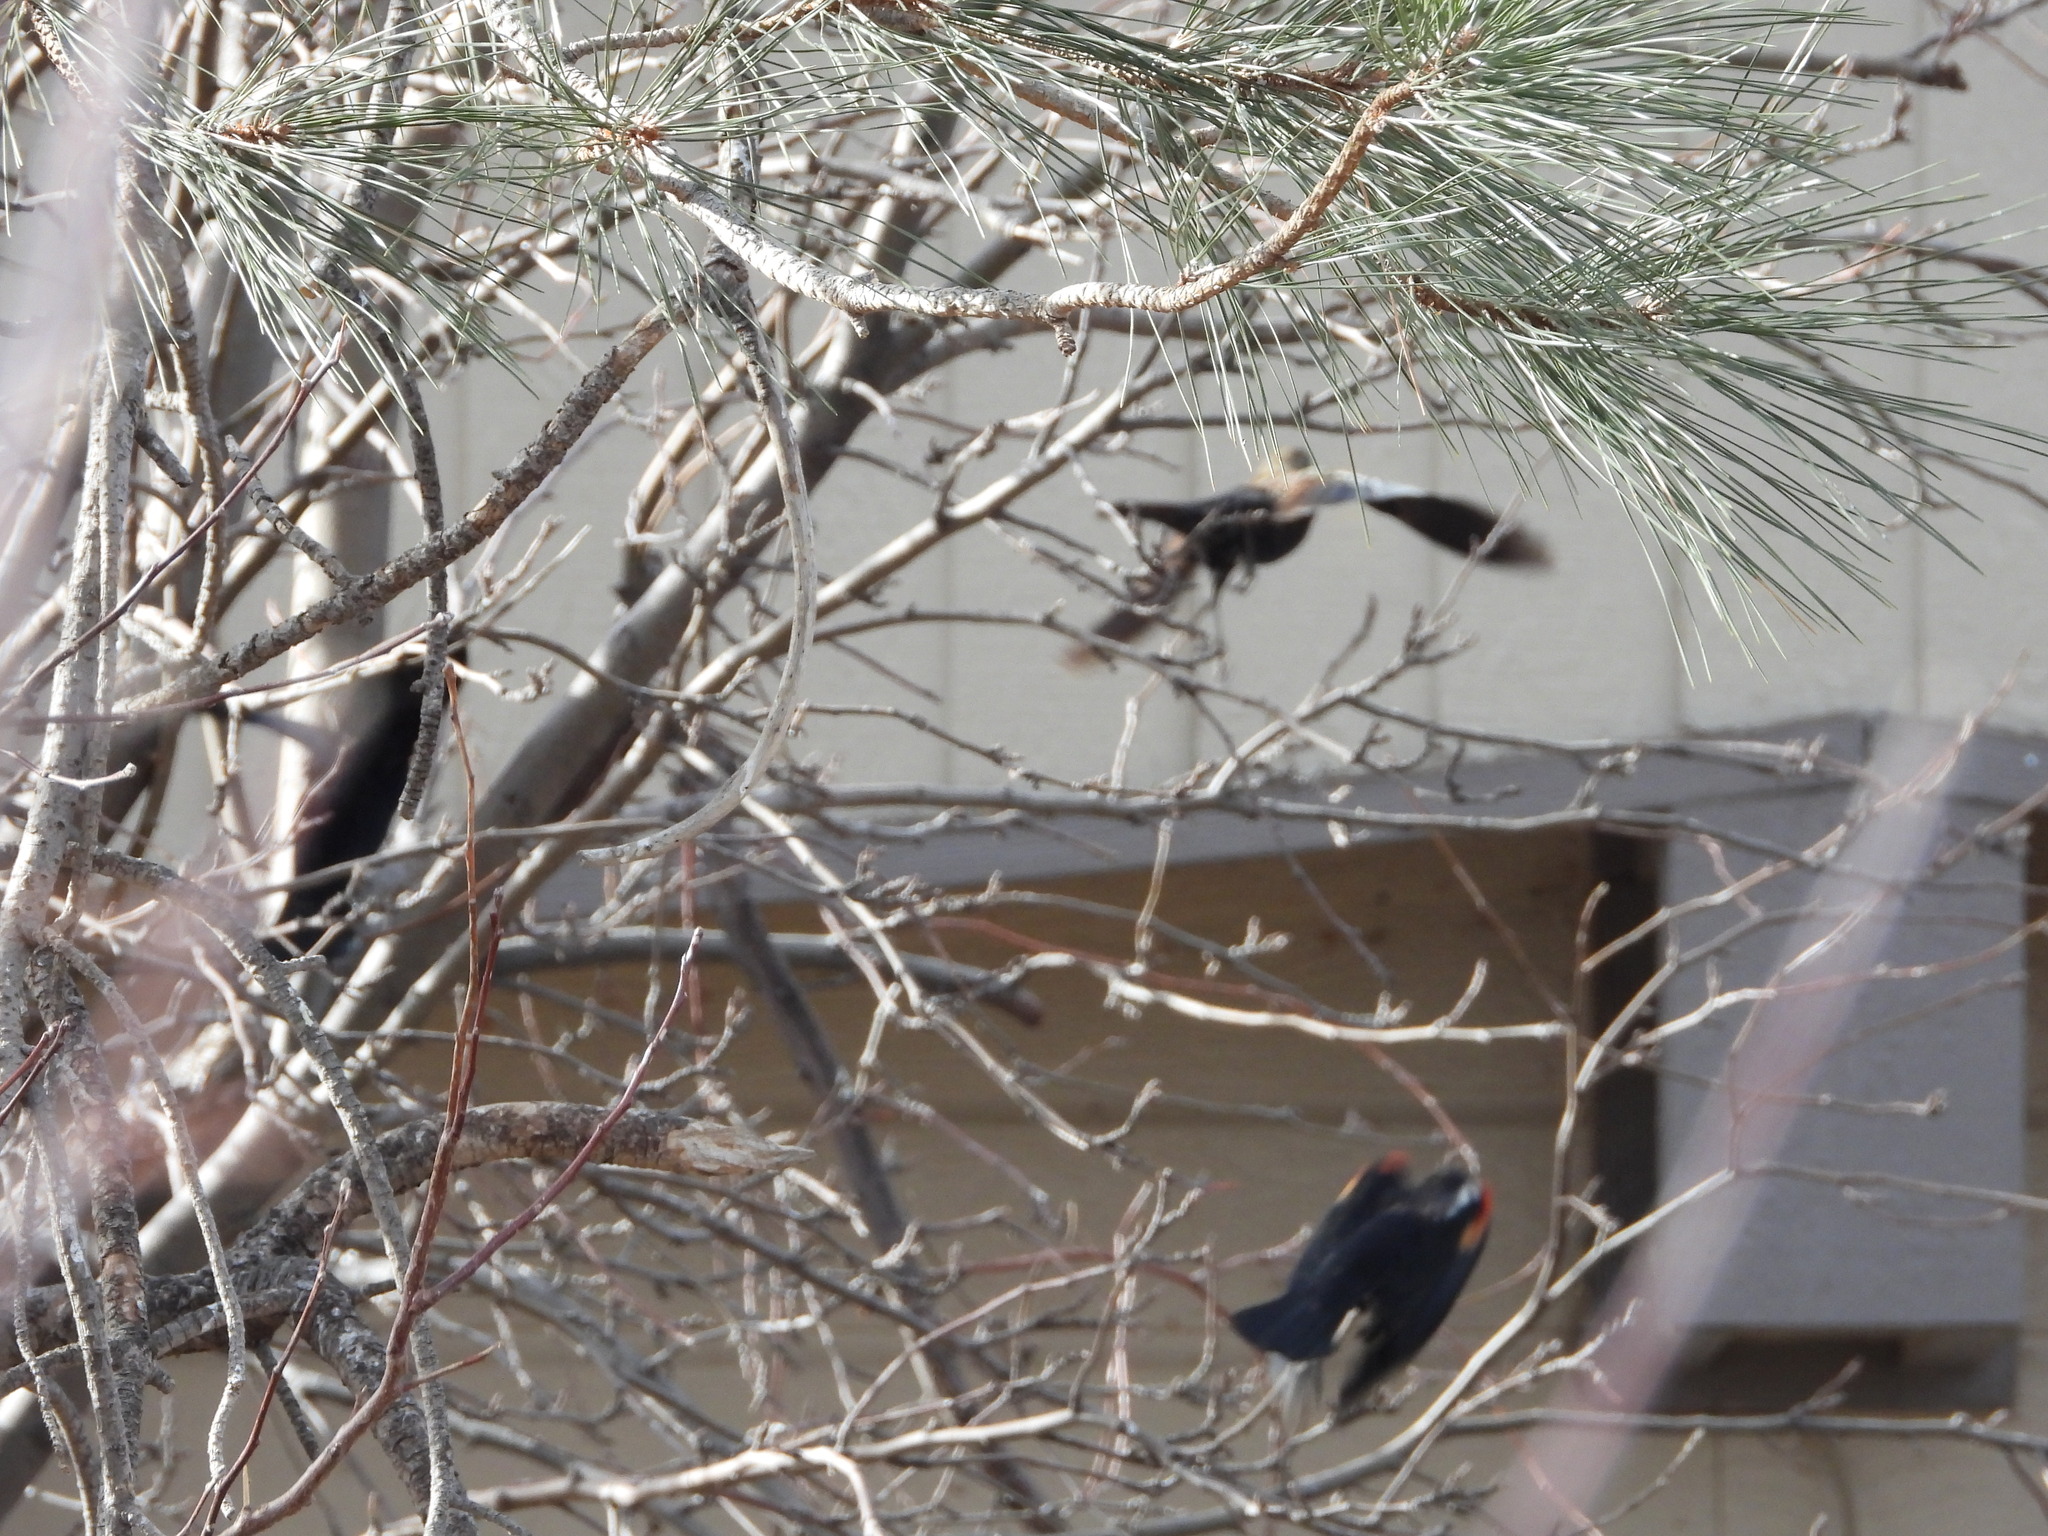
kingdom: Animalia
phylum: Chordata
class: Aves
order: Passeriformes
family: Icteridae
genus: Agelaius
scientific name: Agelaius phoeniceus
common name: Red-winged blackbird
